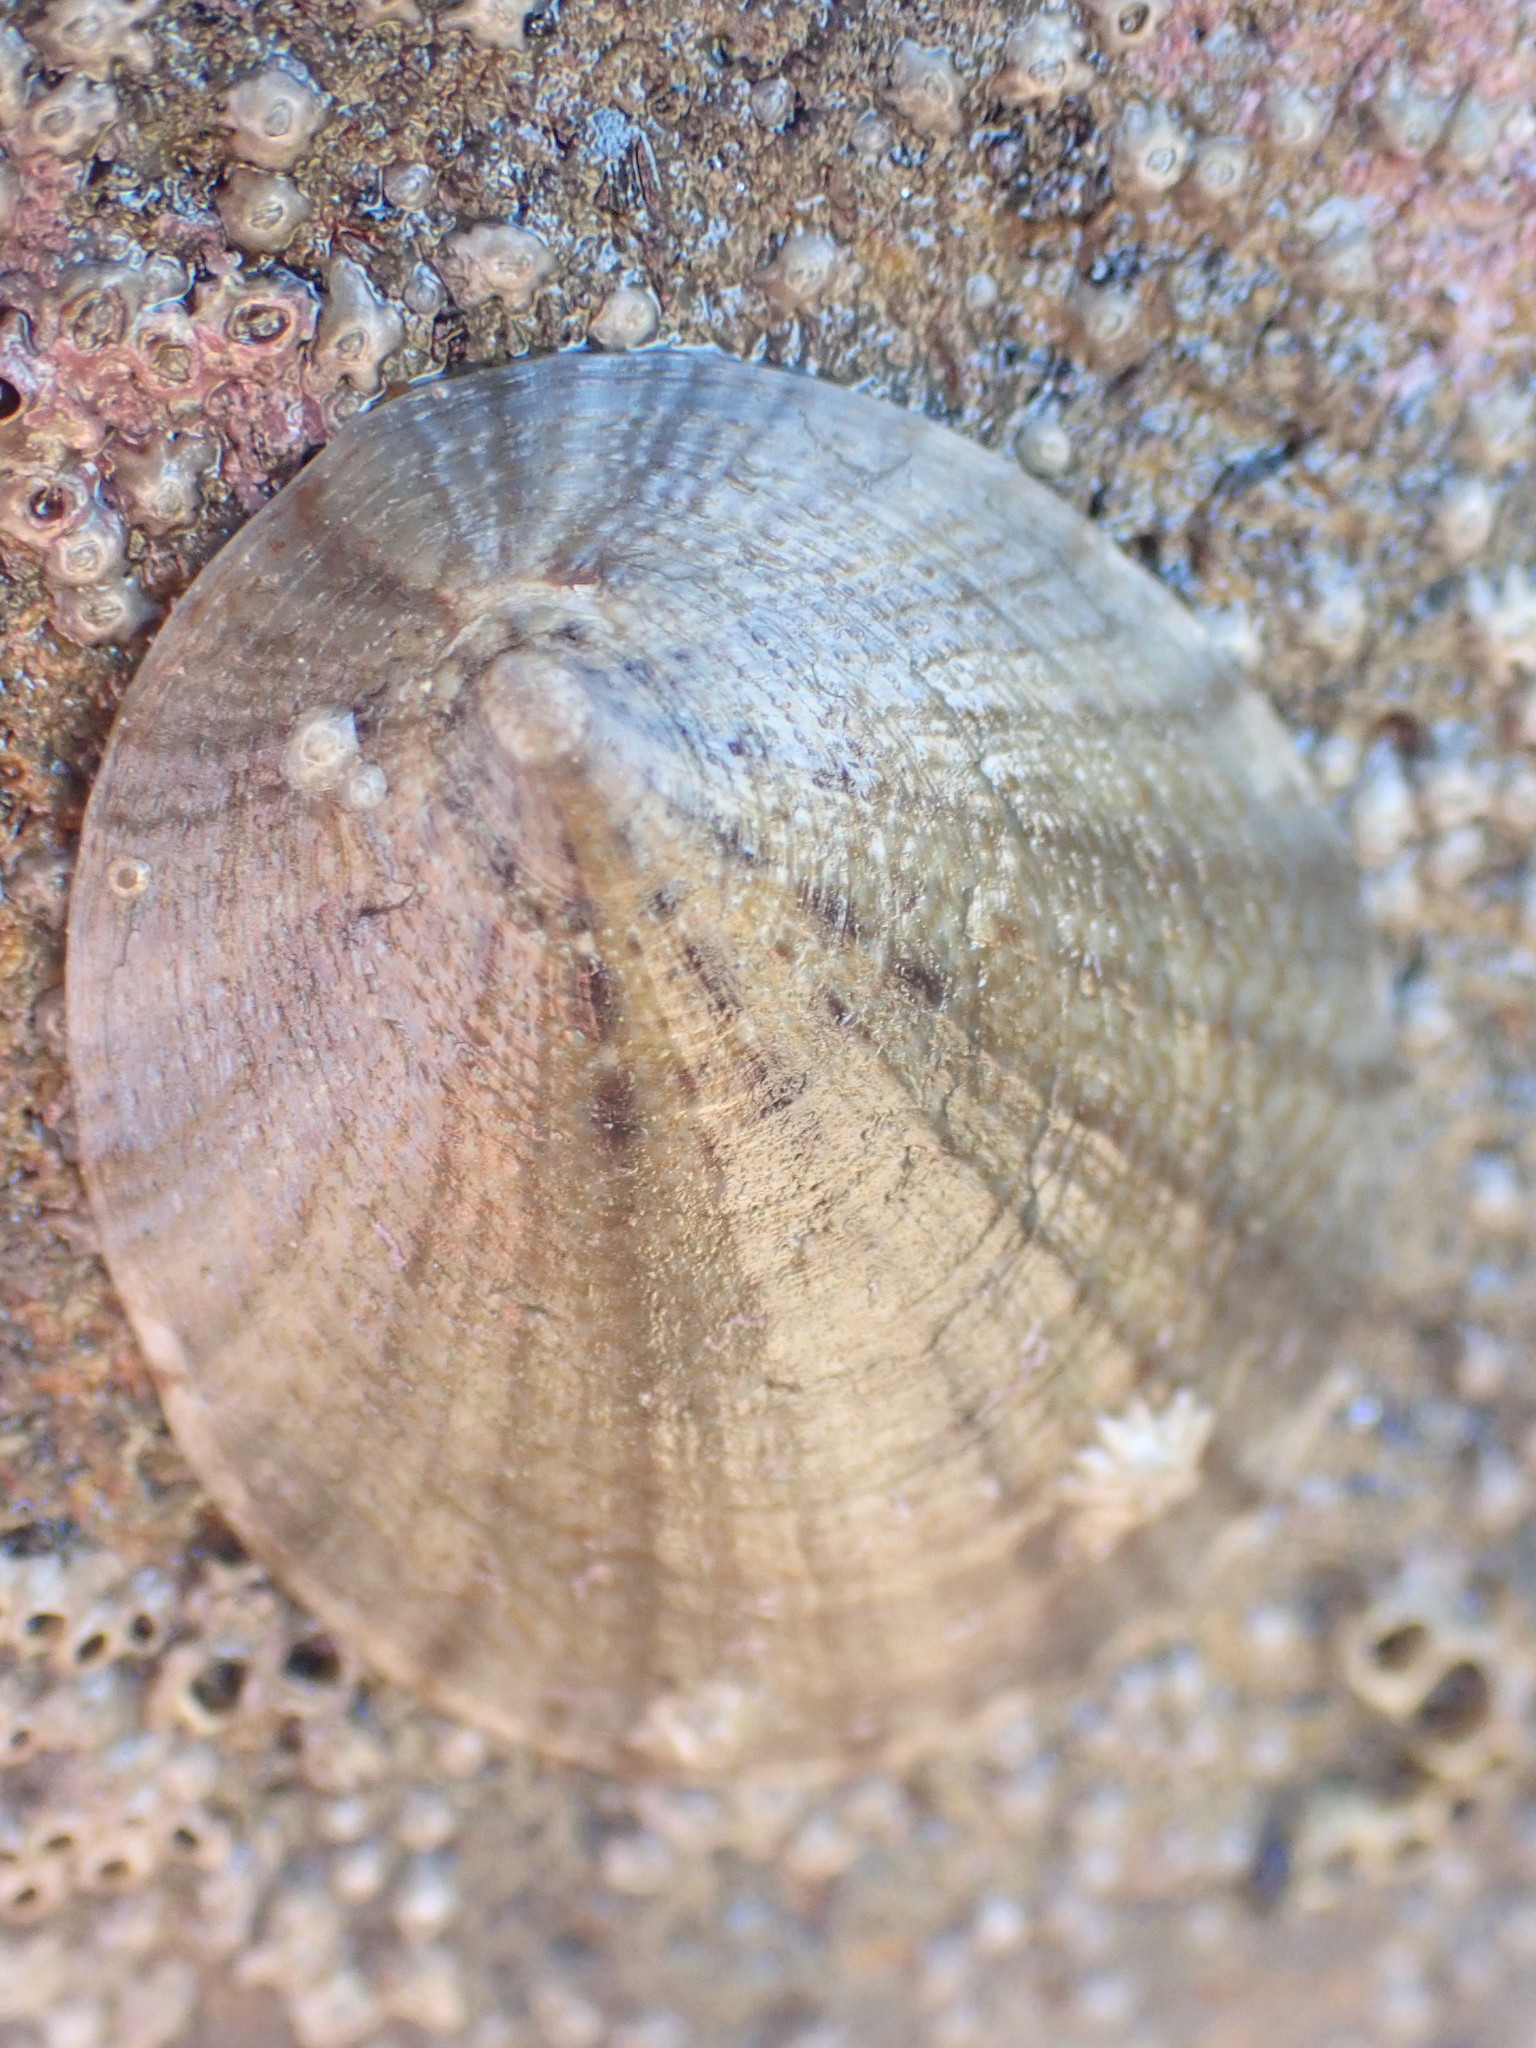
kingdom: Animalia
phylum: Mollusca
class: Gastropoda
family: Nacellidae
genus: Cellana
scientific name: Cellana radians
